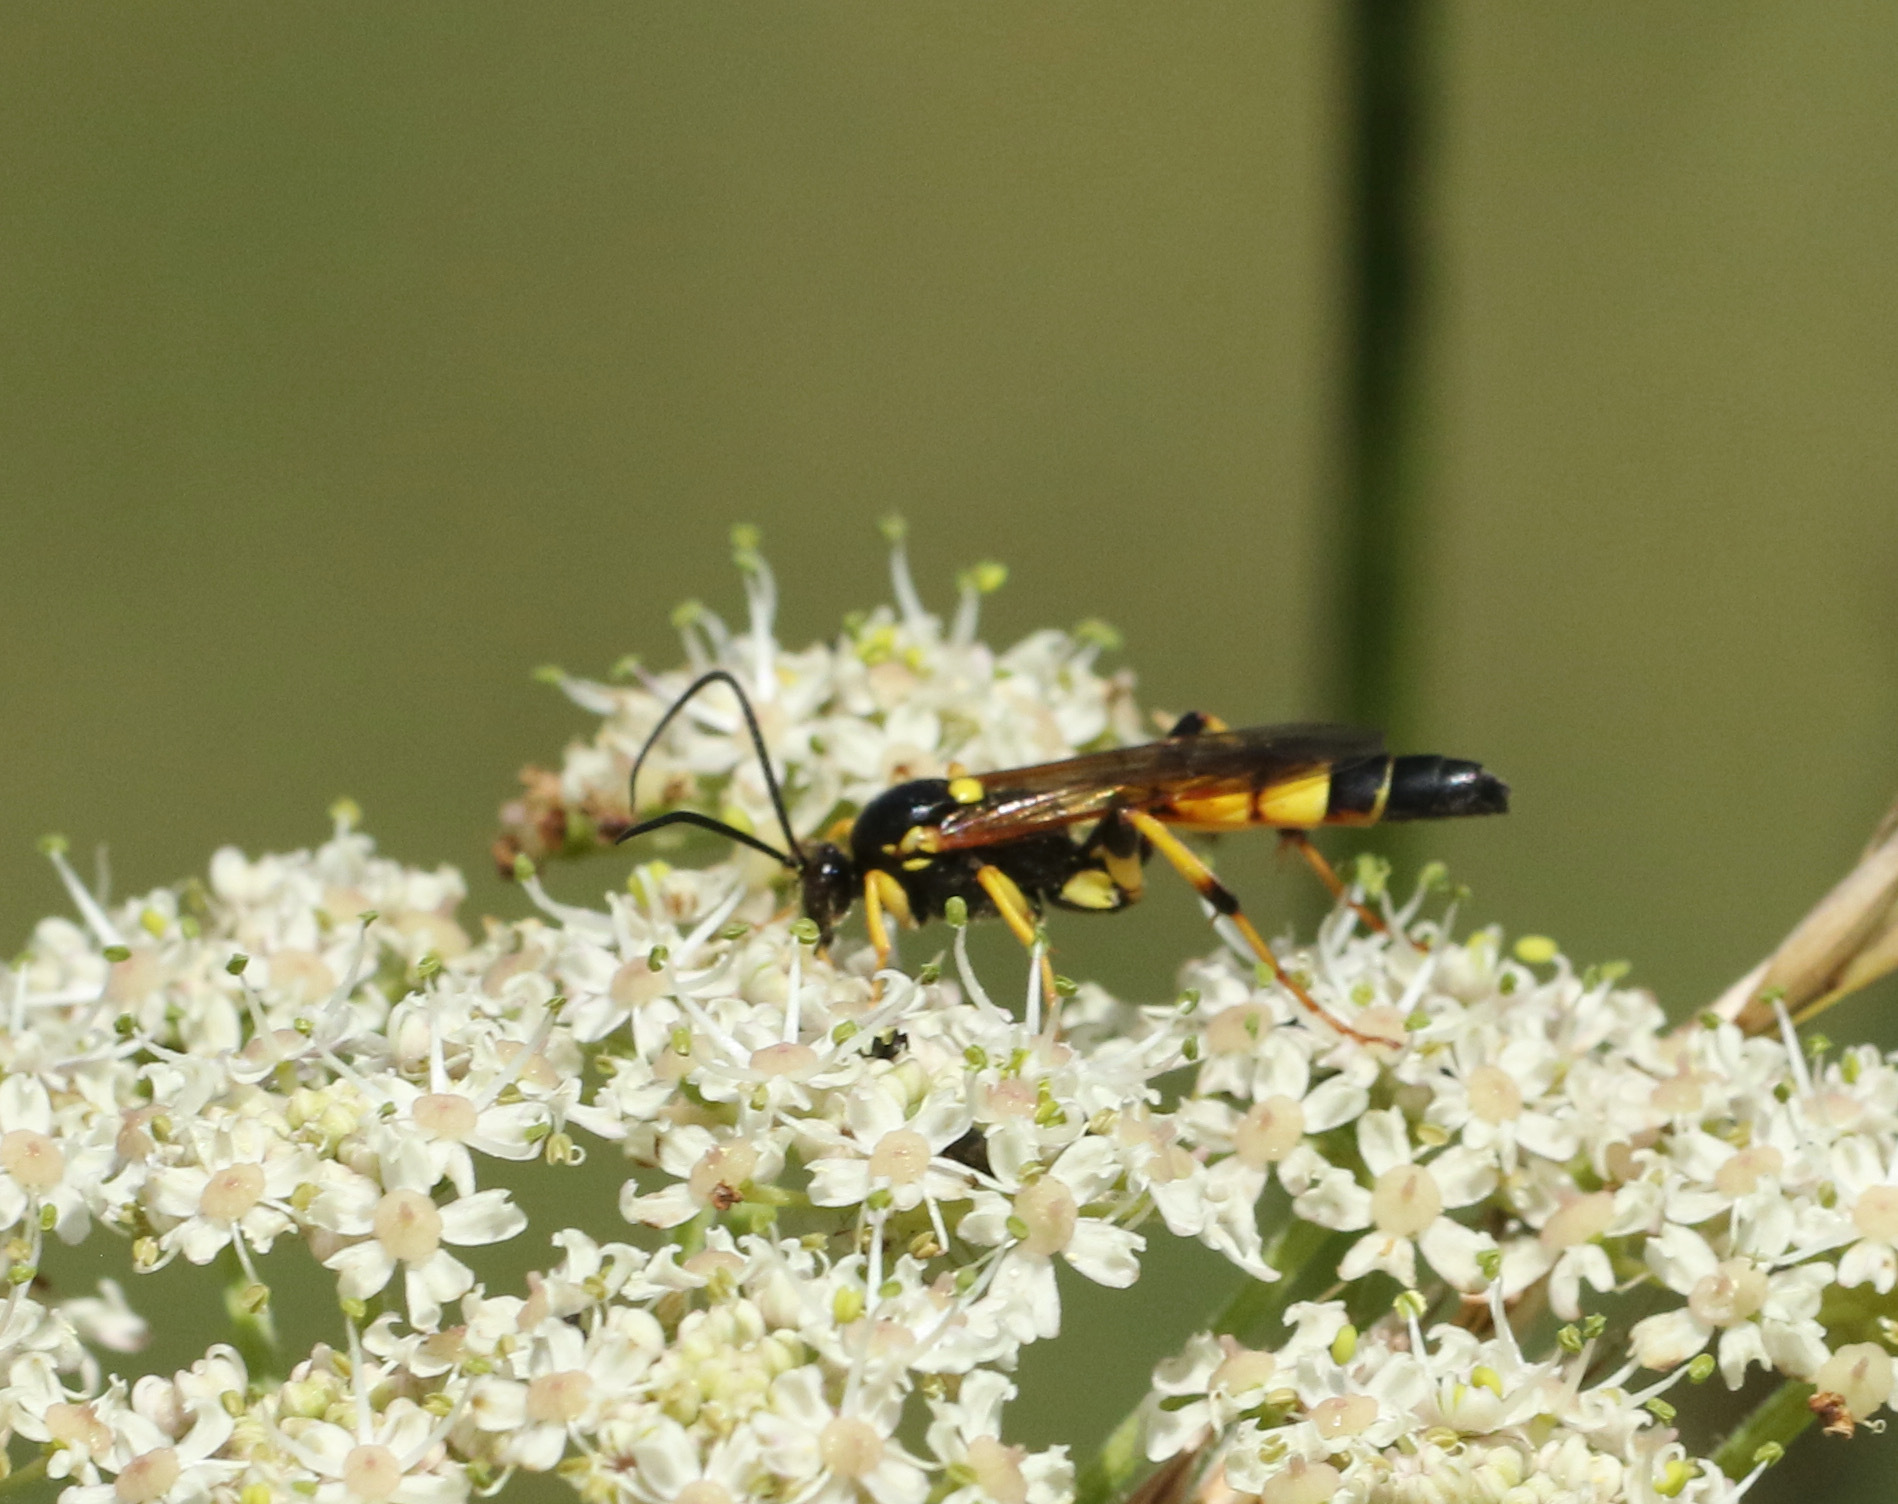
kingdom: Animalia
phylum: Arthropoda
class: Insecta
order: Hymenoptera
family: Ichneumonidae
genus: Ichneumon
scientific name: Ichneumon xanthorius
